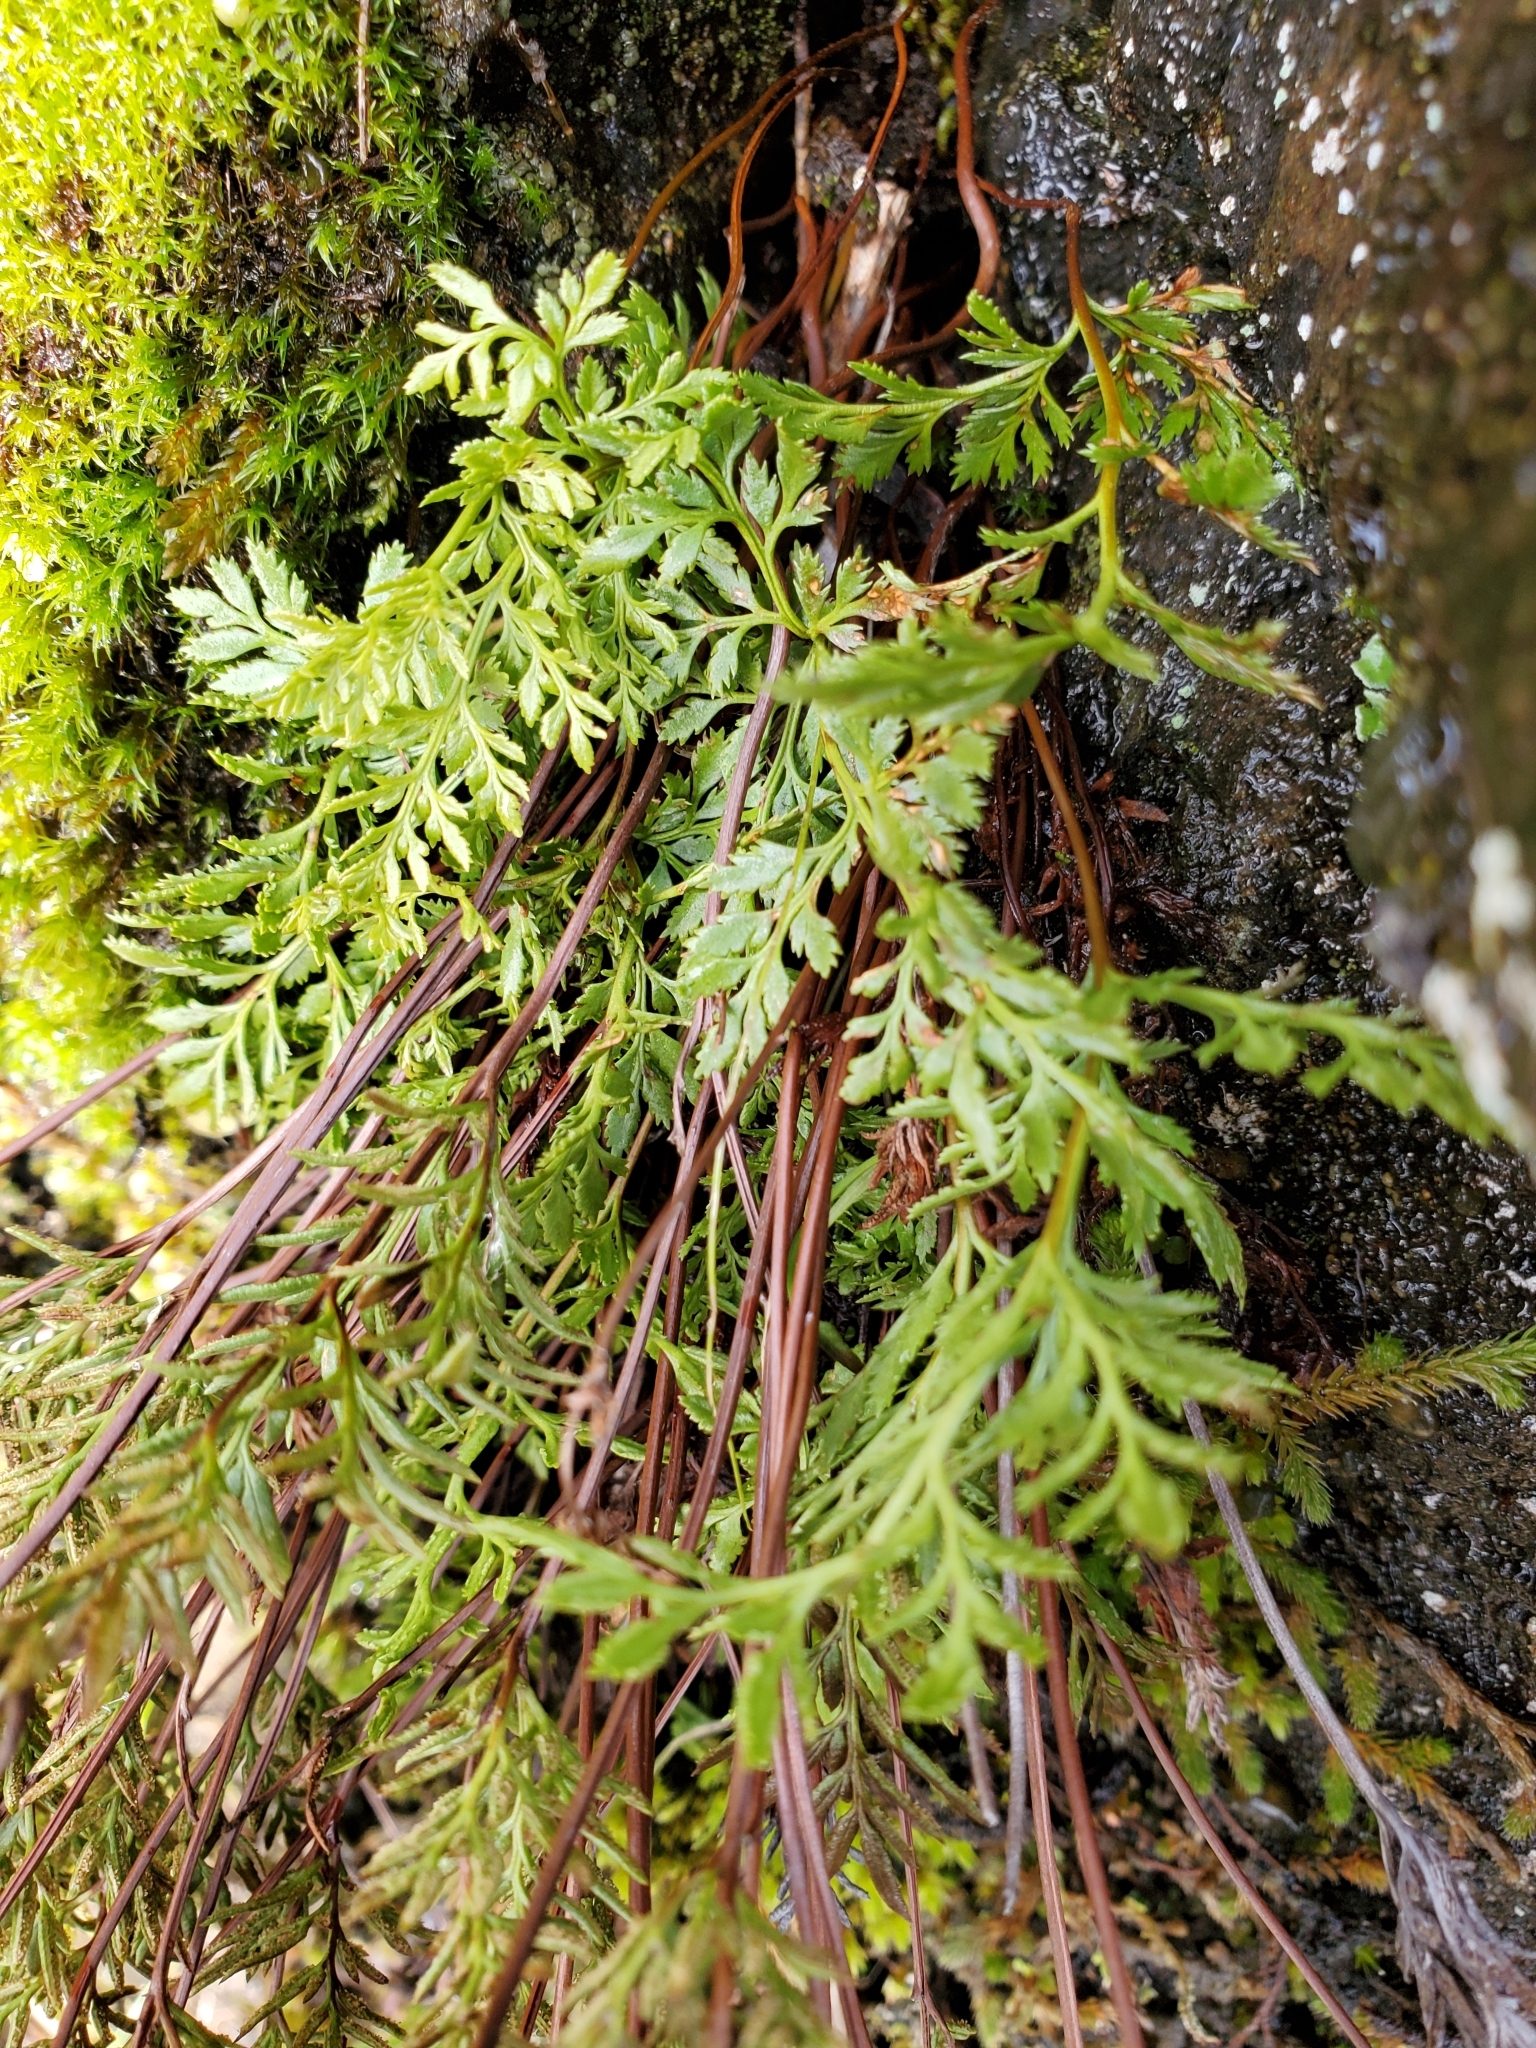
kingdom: Plantae
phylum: Tracheophyta
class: Polypodiopsida
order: Polypodiales
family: Pteridaceae
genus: Aspidotis
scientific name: Aspidotis densa
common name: Indian's dream
